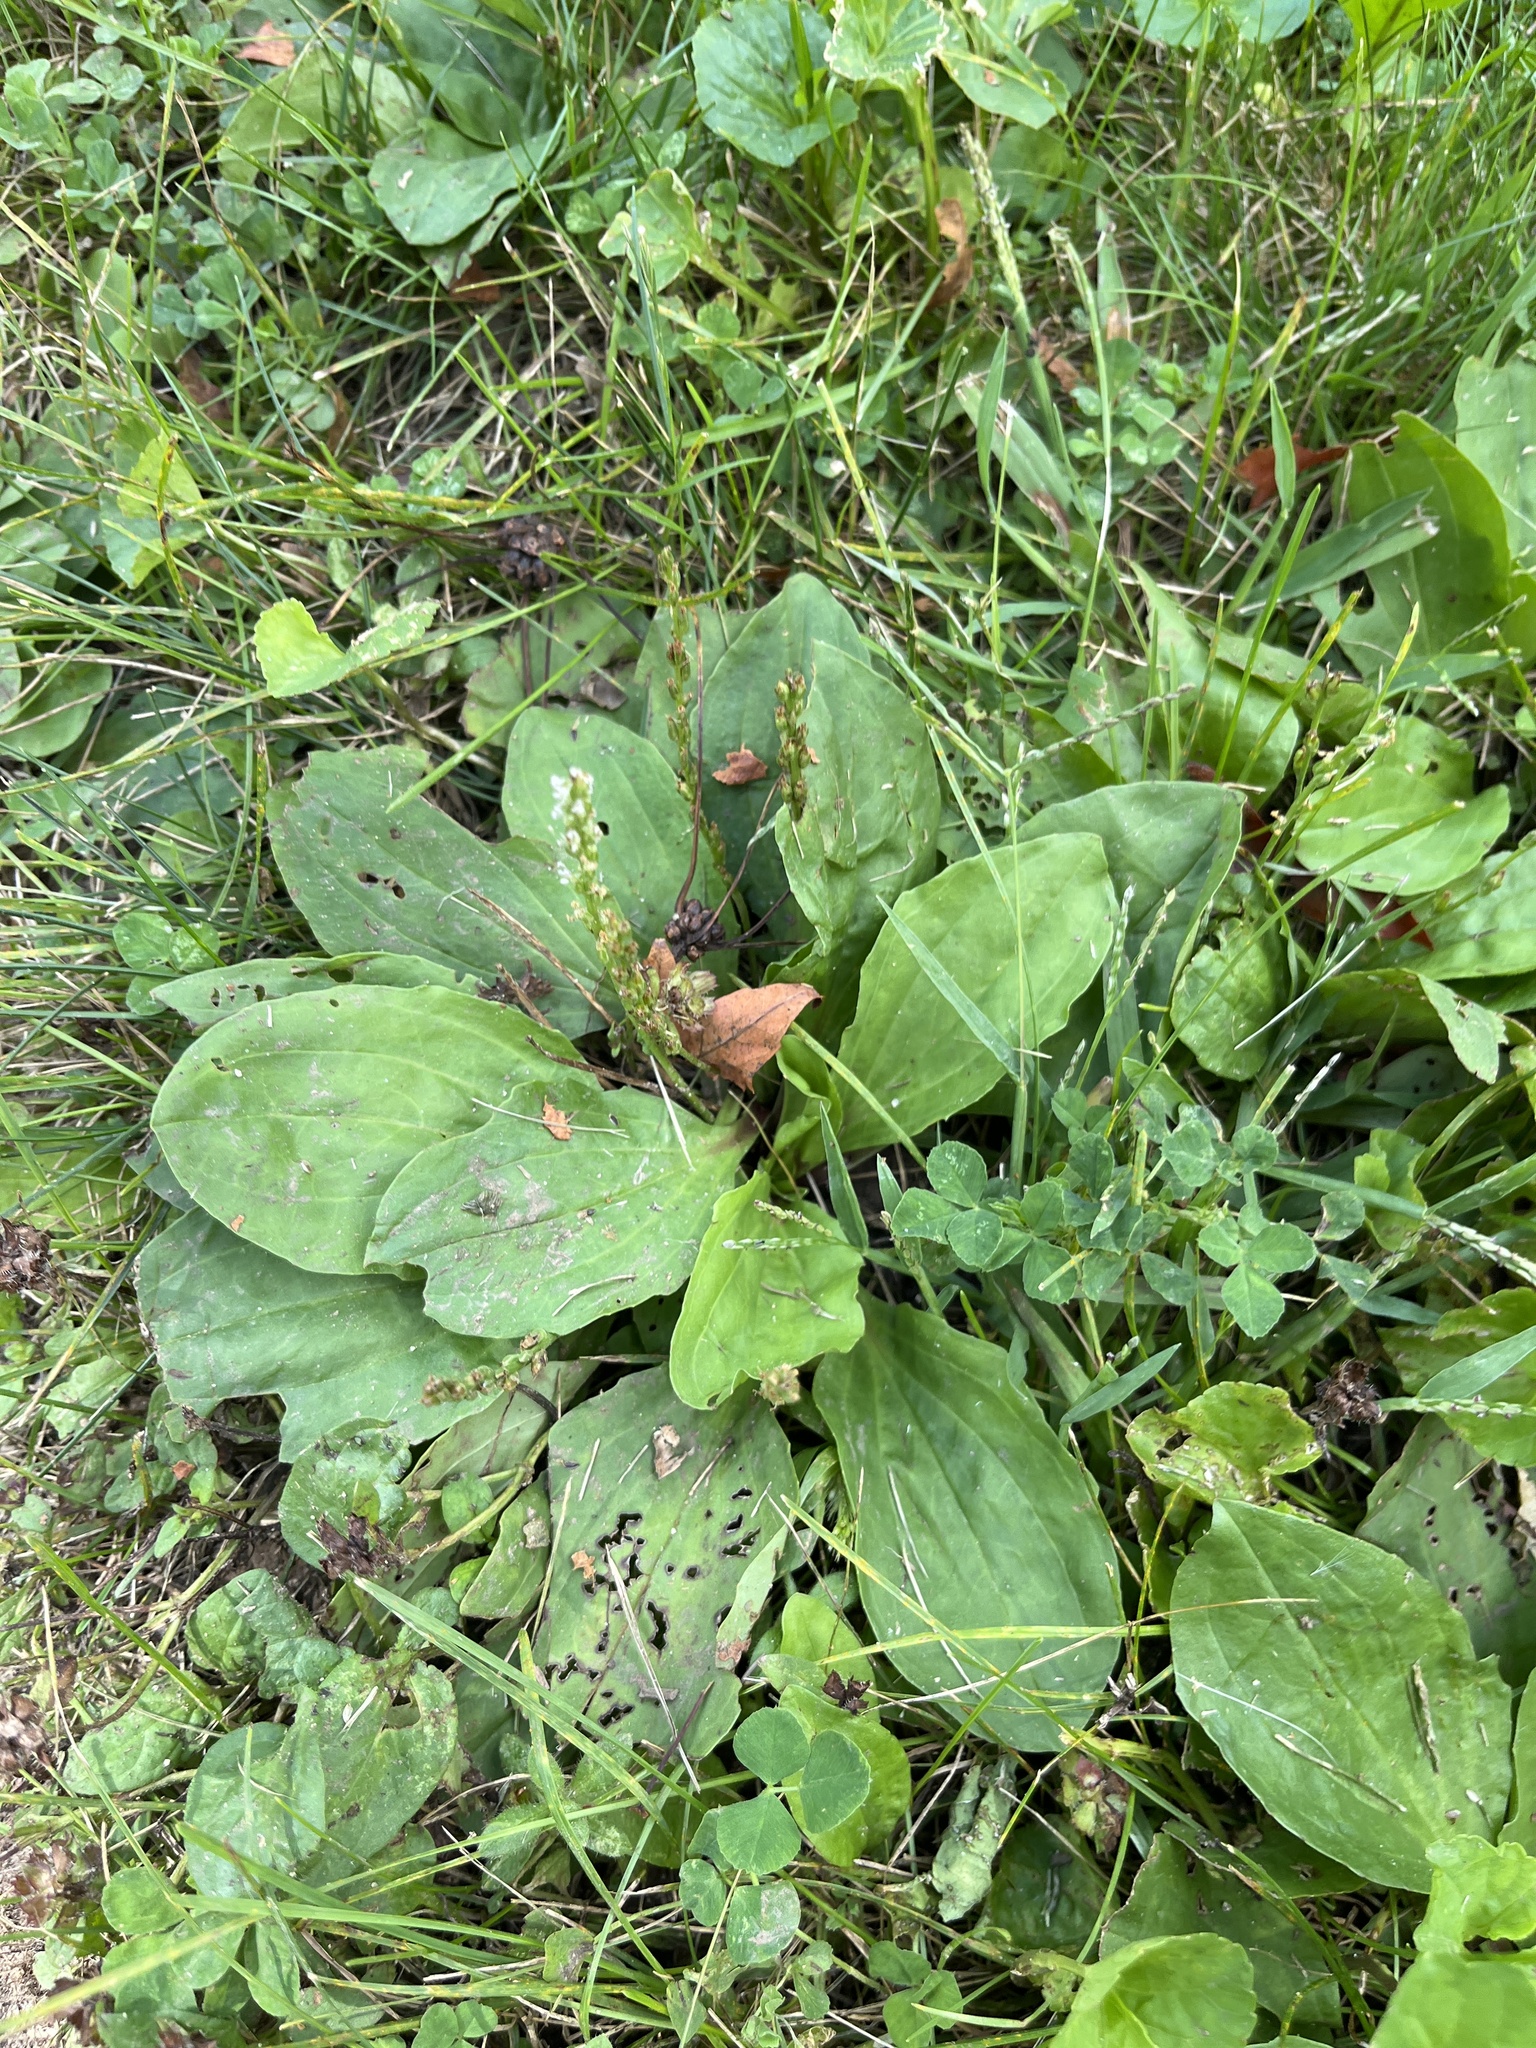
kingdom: Plantae
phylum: Tracheophyta
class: Magnoliopsida
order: Lamiales
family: Plantaginaceae
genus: Plantago
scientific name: Plantago rugelii
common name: American plantain
